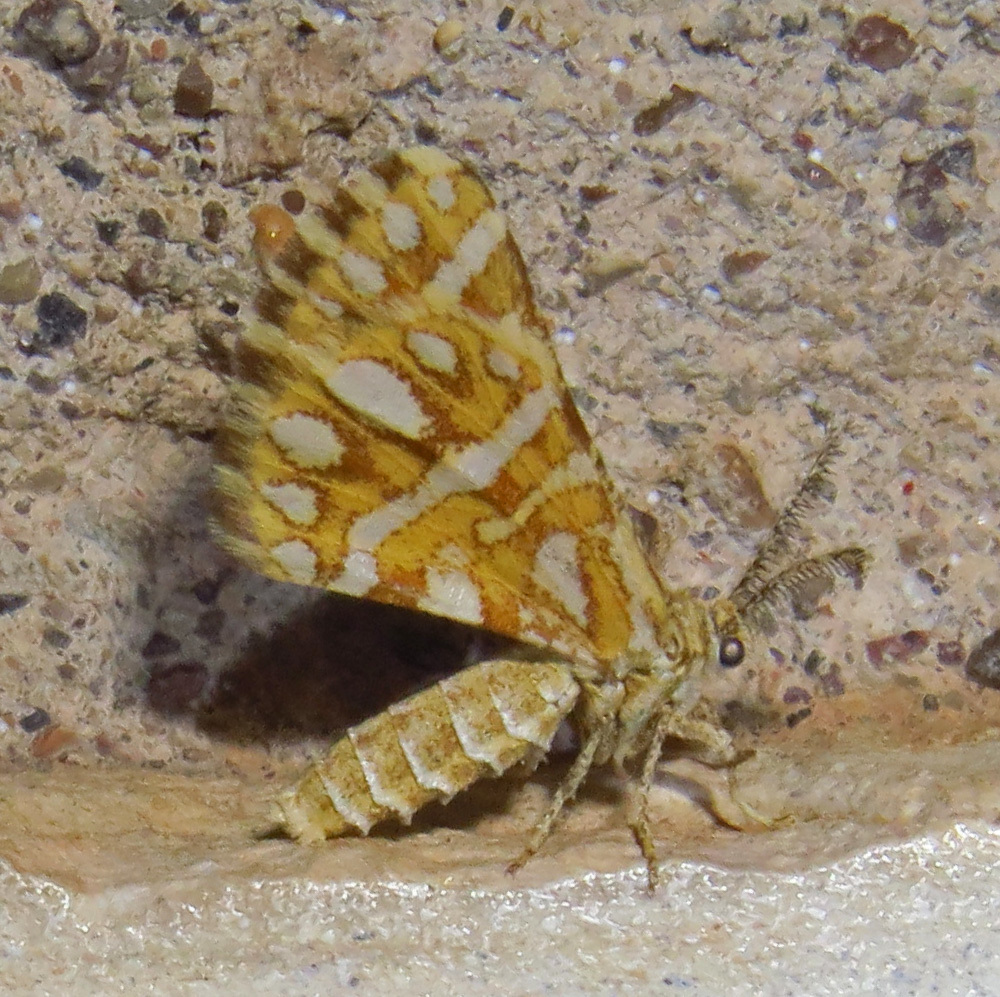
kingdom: Animalia
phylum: Arthropoda
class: Insecta
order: Lepidoptera
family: Geometridae
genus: Narraga
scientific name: Narraga fimetaria
